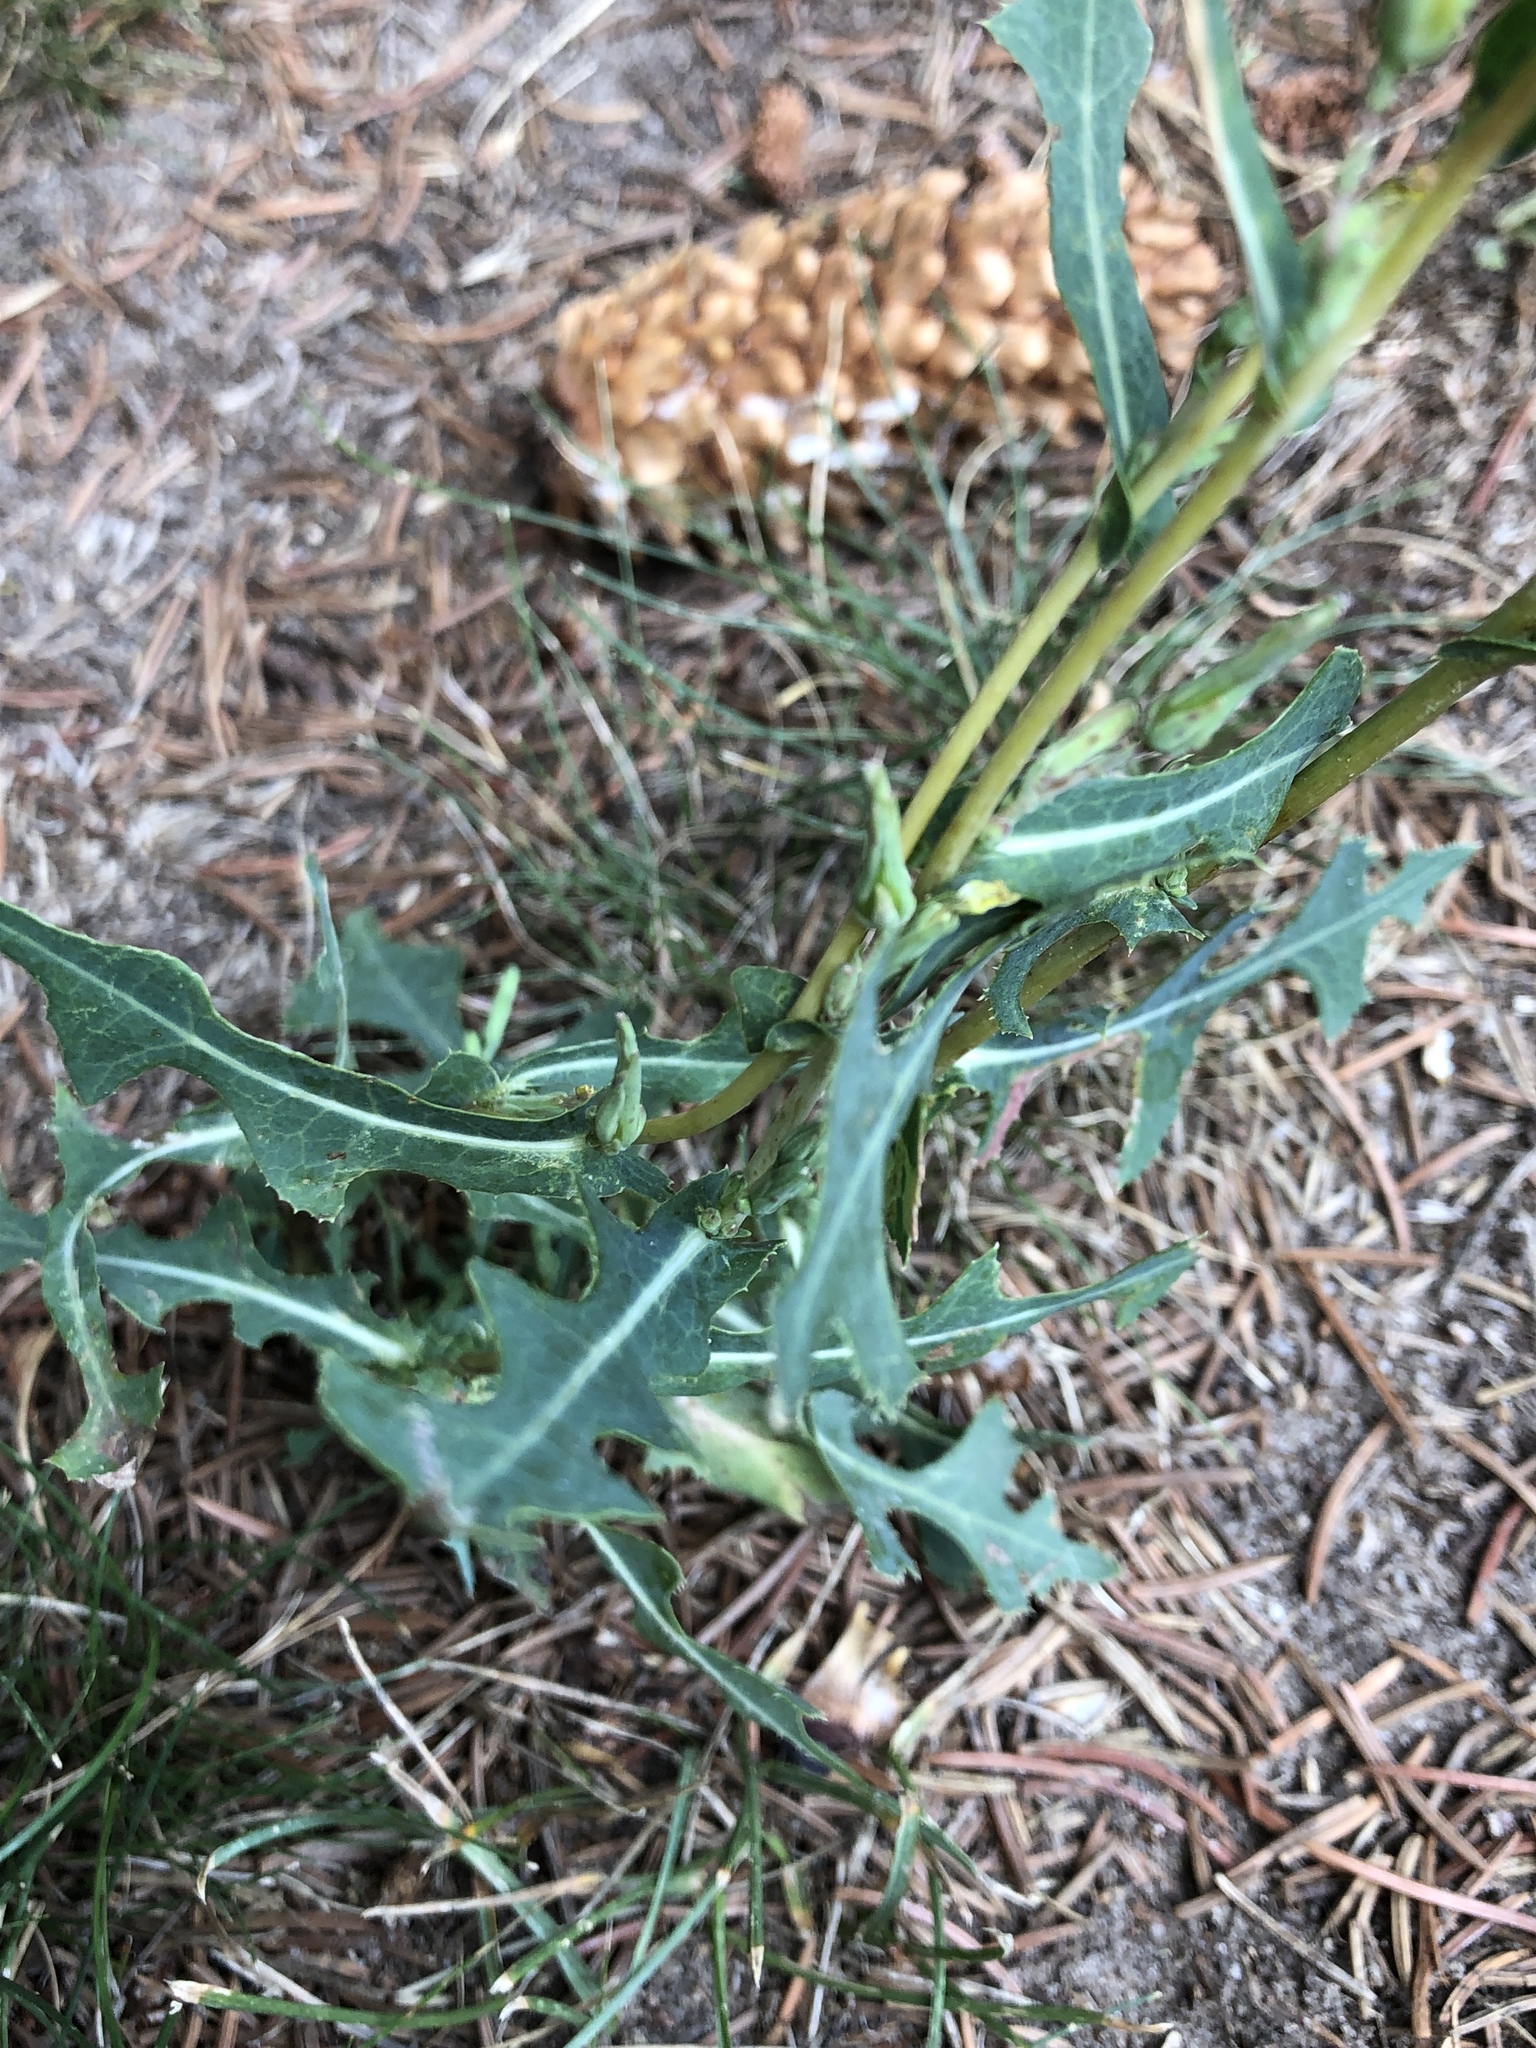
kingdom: Plantae
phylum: Tracheophyta
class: Magnoliopsida
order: Asterales
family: Asteraceae
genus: Lactuca
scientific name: Lactuca serriola
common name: Prickly lettuce
